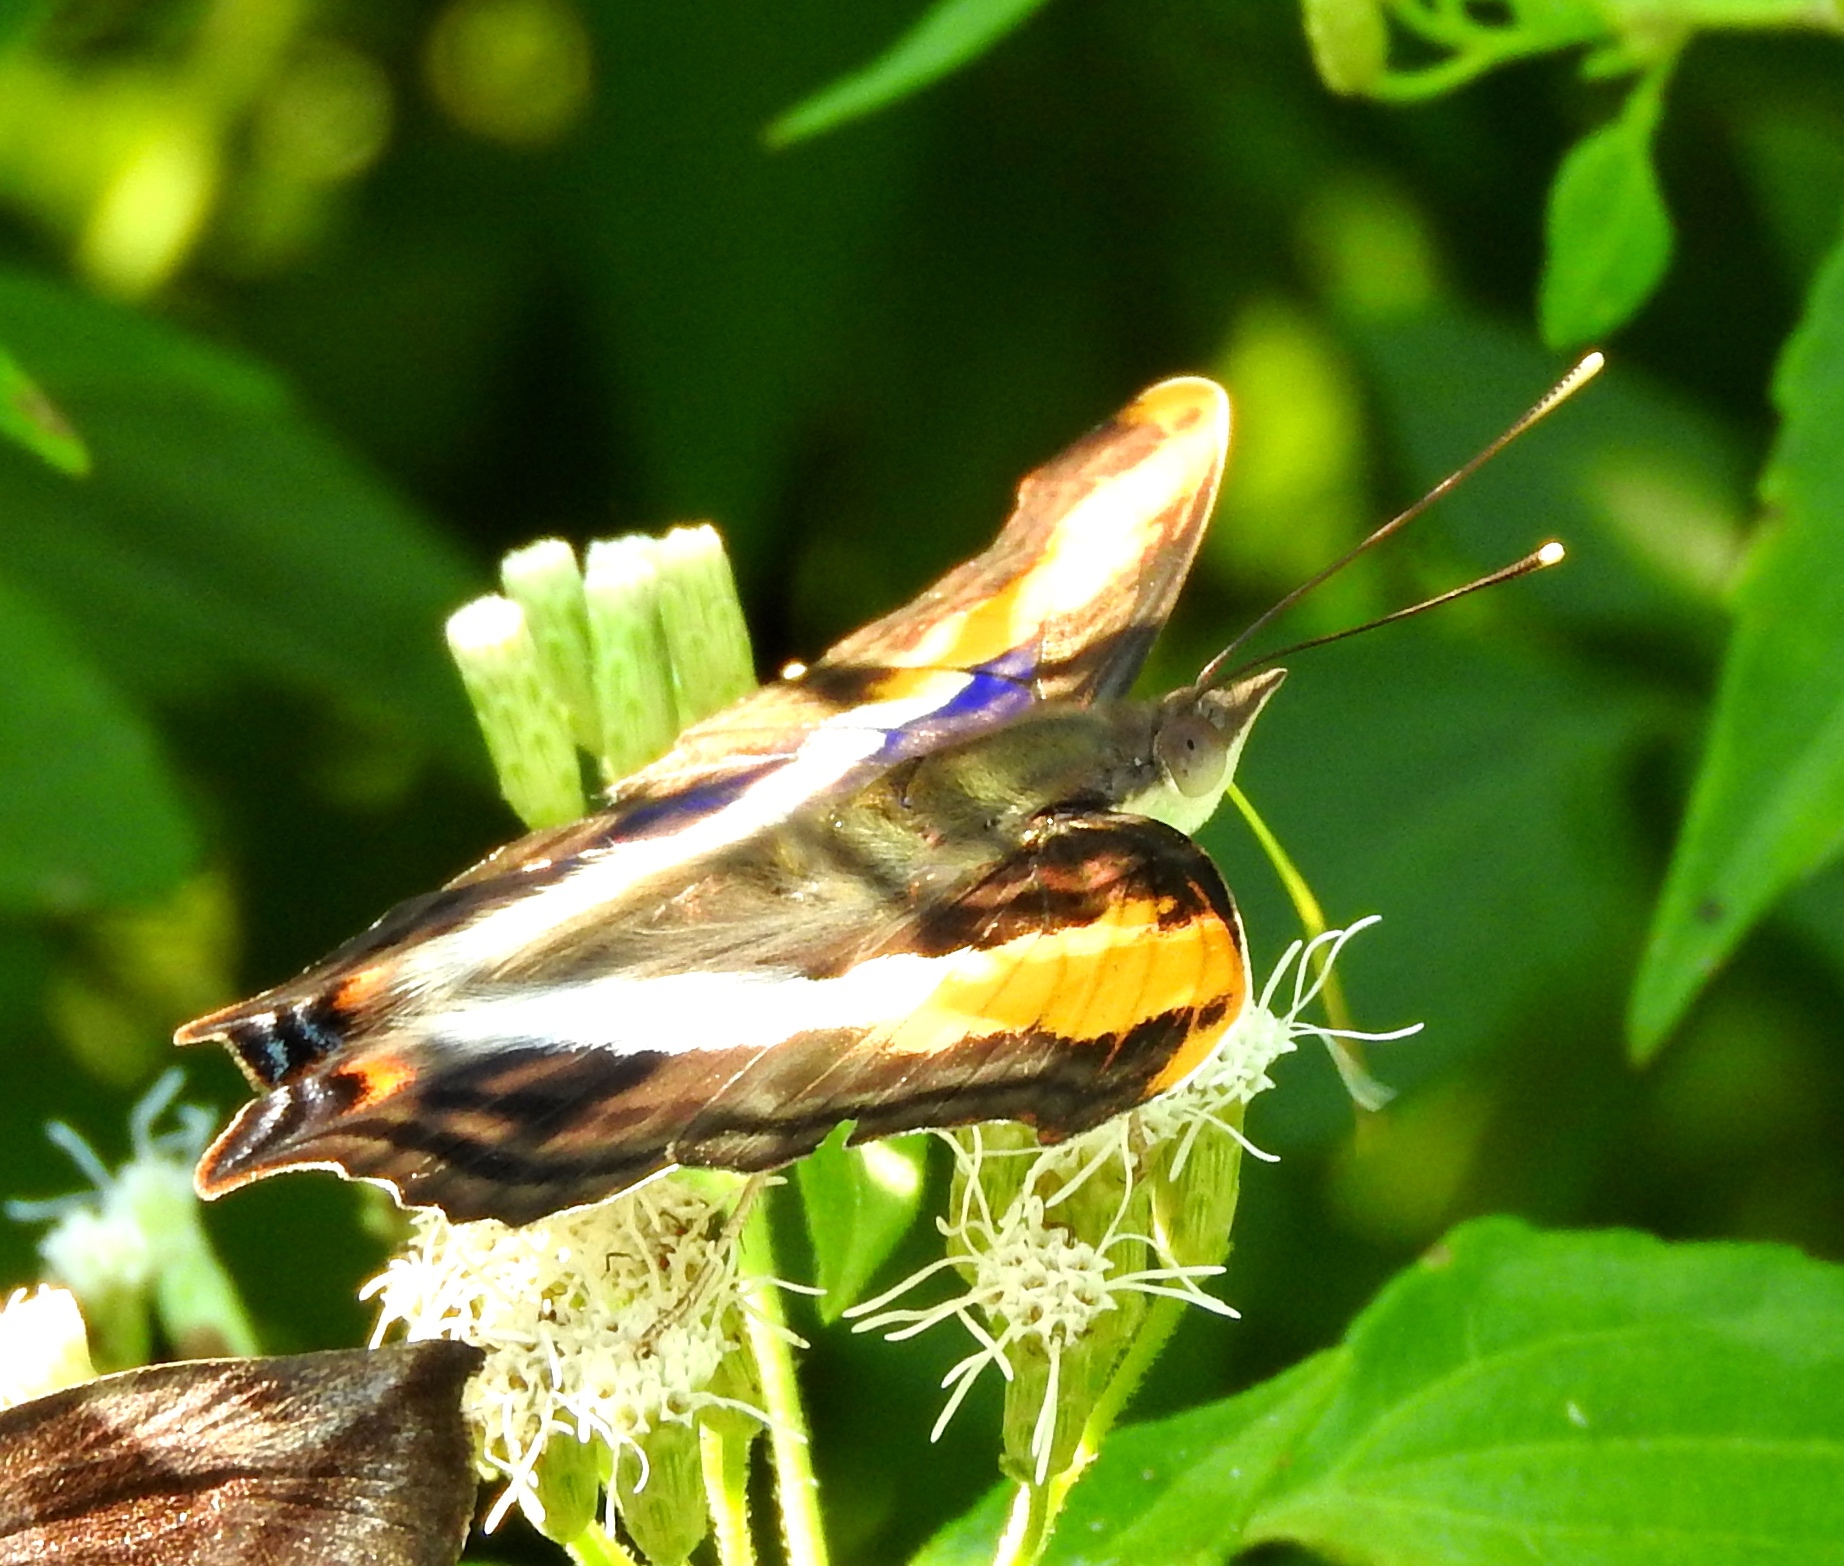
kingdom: Animalia
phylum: Arthropoda
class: Insecta
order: Lepidoptera
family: Nymphalidae
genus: Doxocopa
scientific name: Doxocopa laure
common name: Silver emperor
